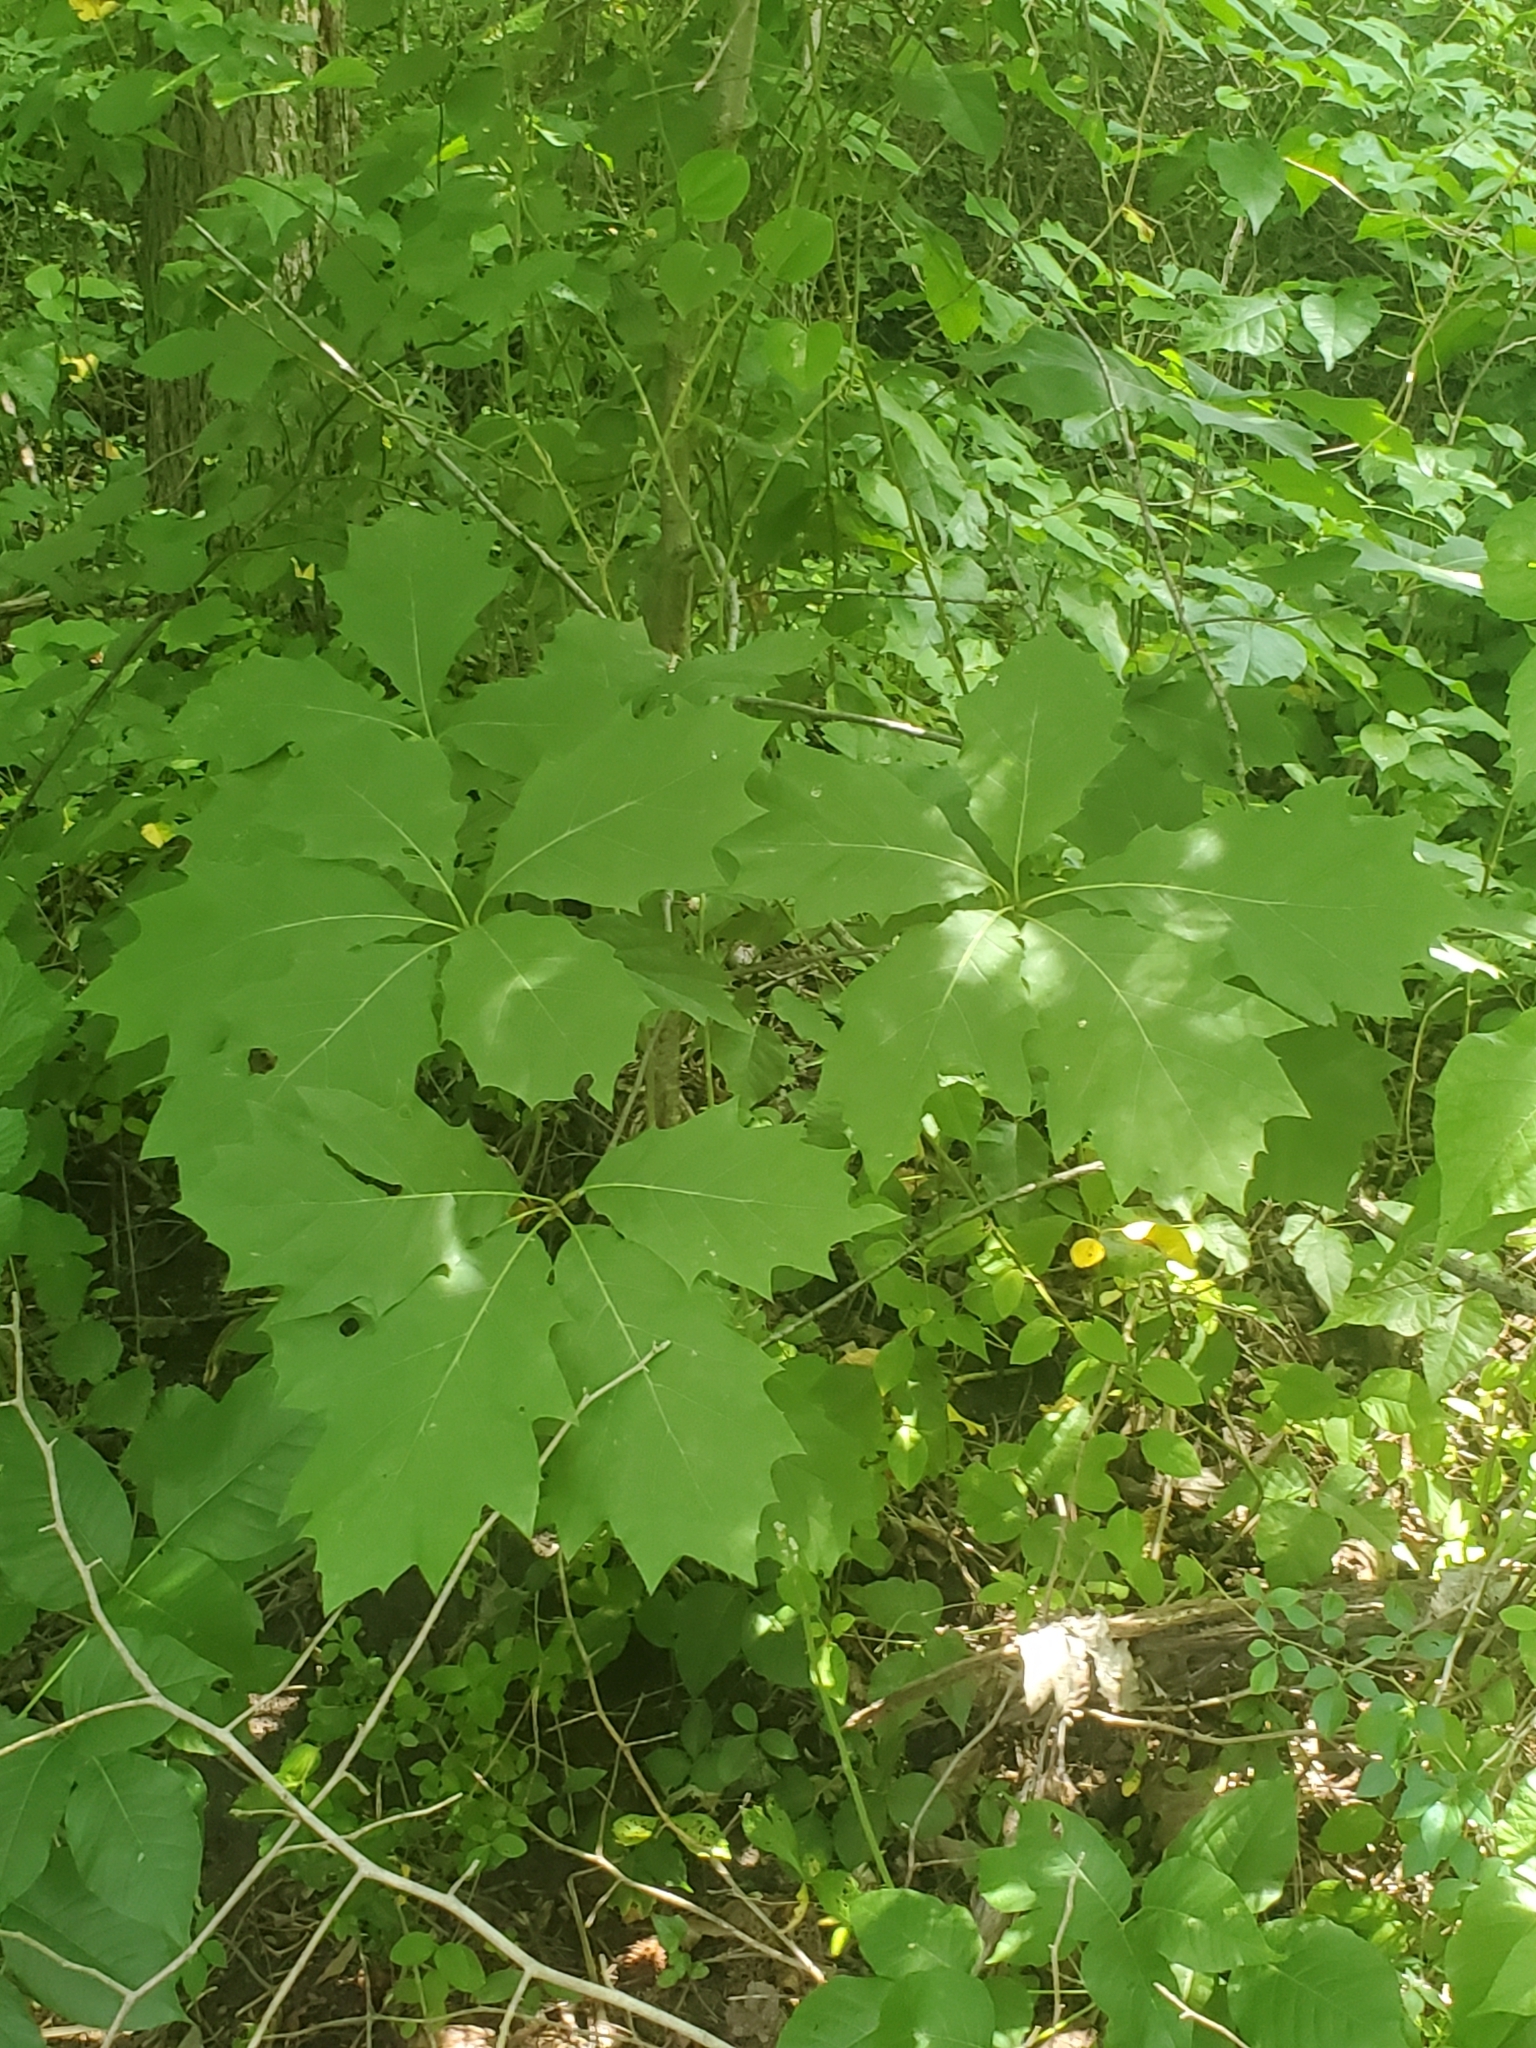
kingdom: Plantae
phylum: Tracheophyta
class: Magnoliopsida
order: Fagales
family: Fagaceae
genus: Quercus
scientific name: Quercus rubra
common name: Red oak
